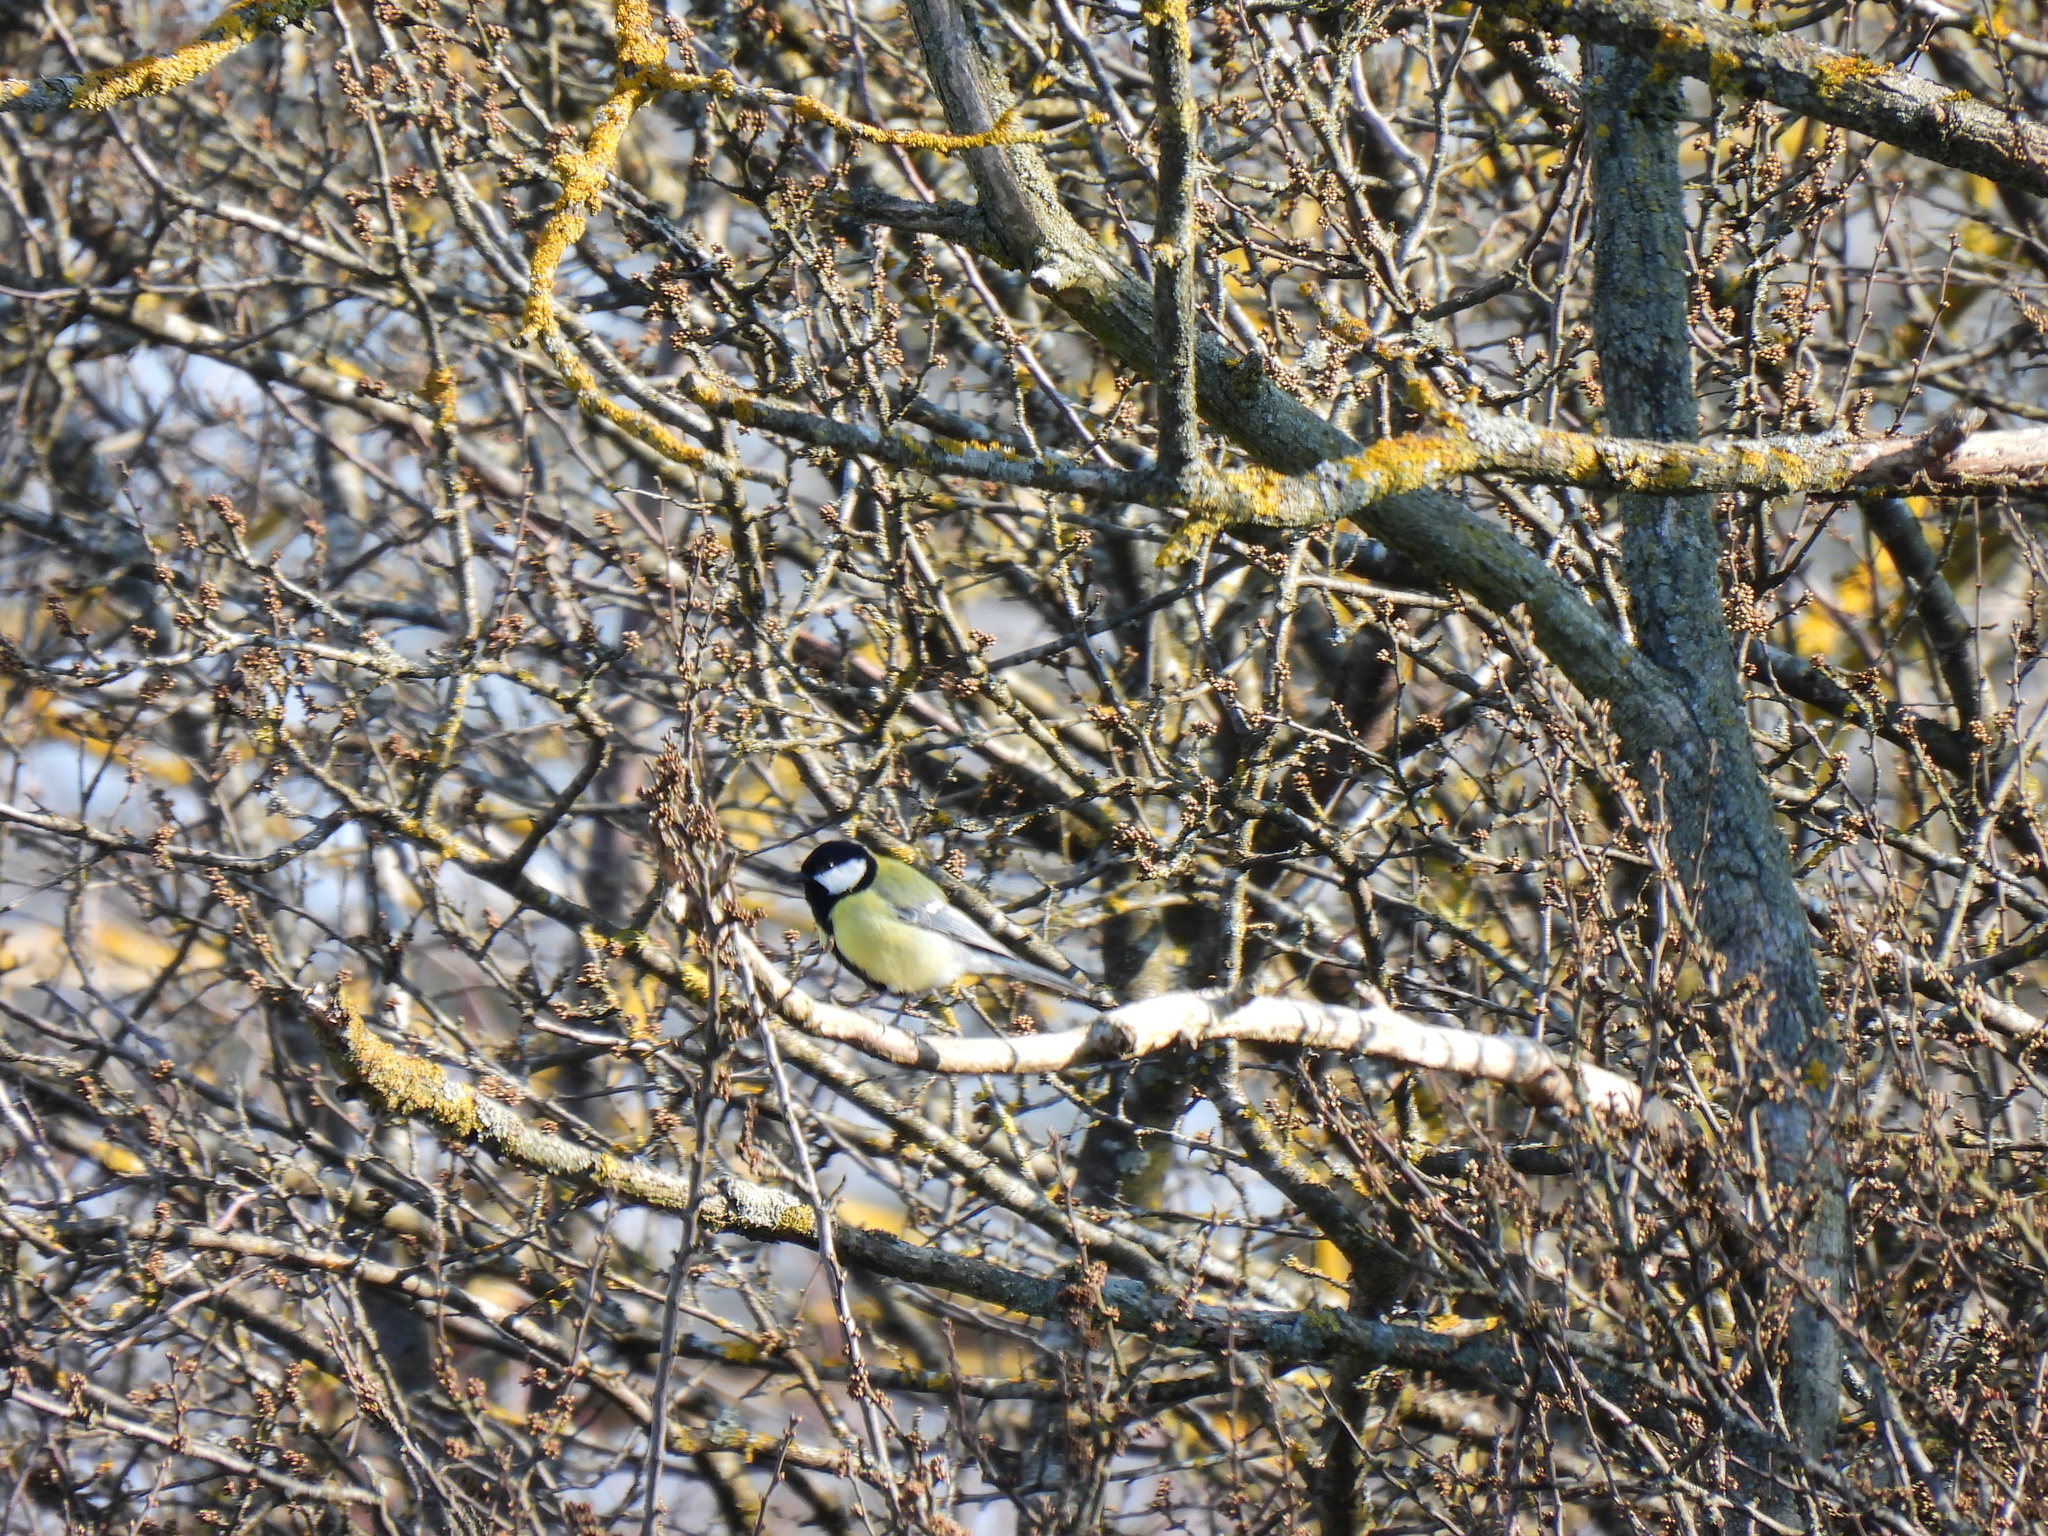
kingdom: Animalia
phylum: Chordata
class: Aves
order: Passeriformes
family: Paridae
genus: Parus
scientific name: Parus major
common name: Great tit
